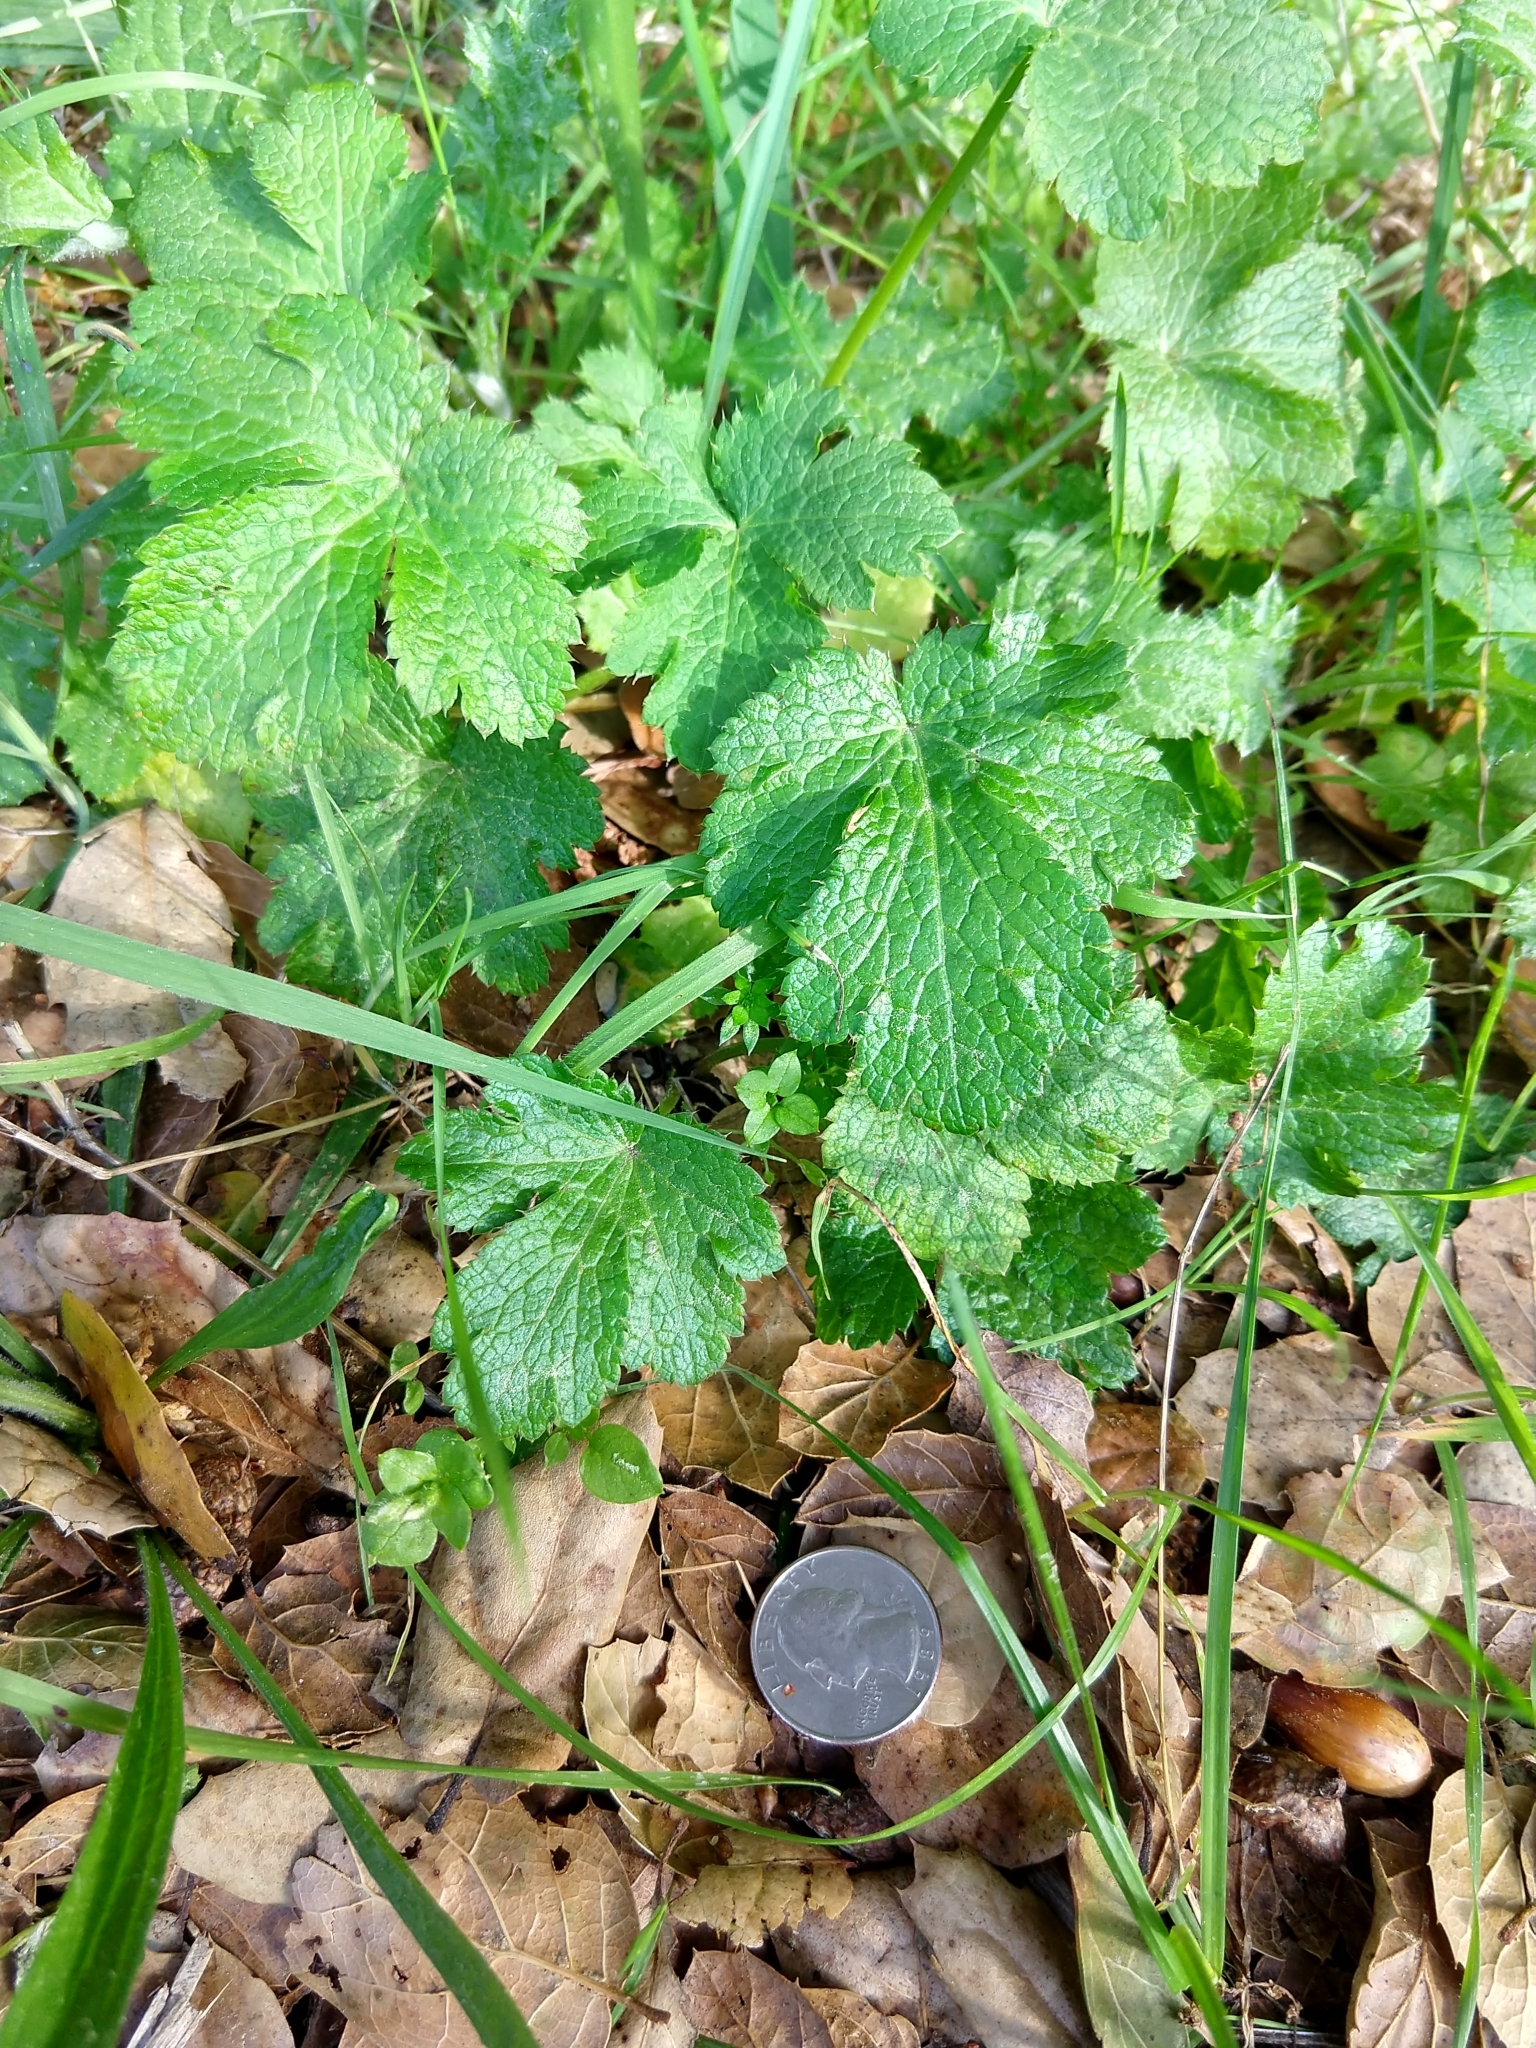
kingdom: Plantae
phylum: Tracheophyta
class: Magnoliopsida
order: Apiales
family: Apiaceae
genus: Sanicula
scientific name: Sanicula crassicaulis
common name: Western snakeroot
